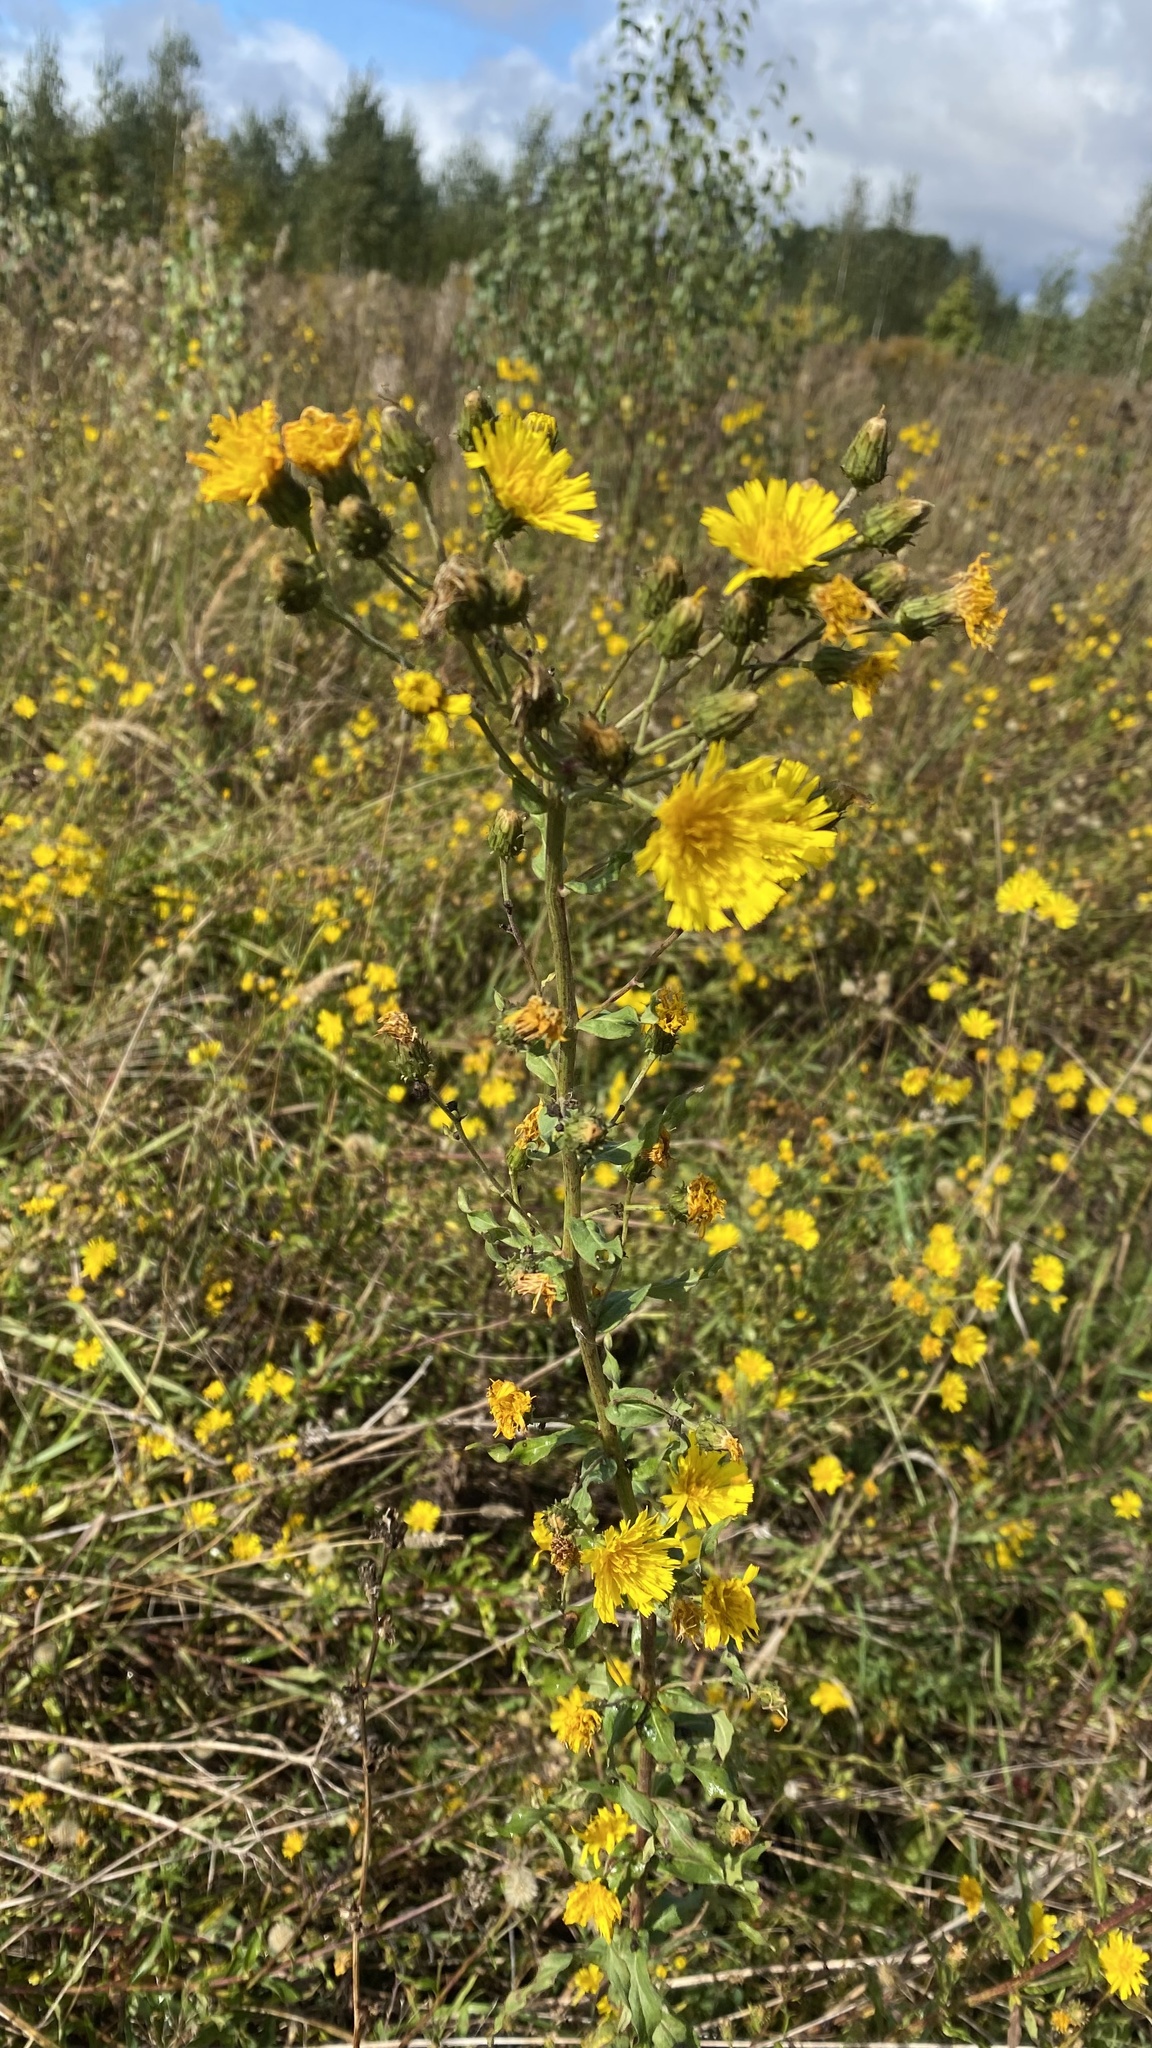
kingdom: Plantae
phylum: Tracheophyta
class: Magnoliopsida
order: Asterales
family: Asteraceae
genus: Hieracium
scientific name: Hieracium umbellatum
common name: Northern hawkweed
